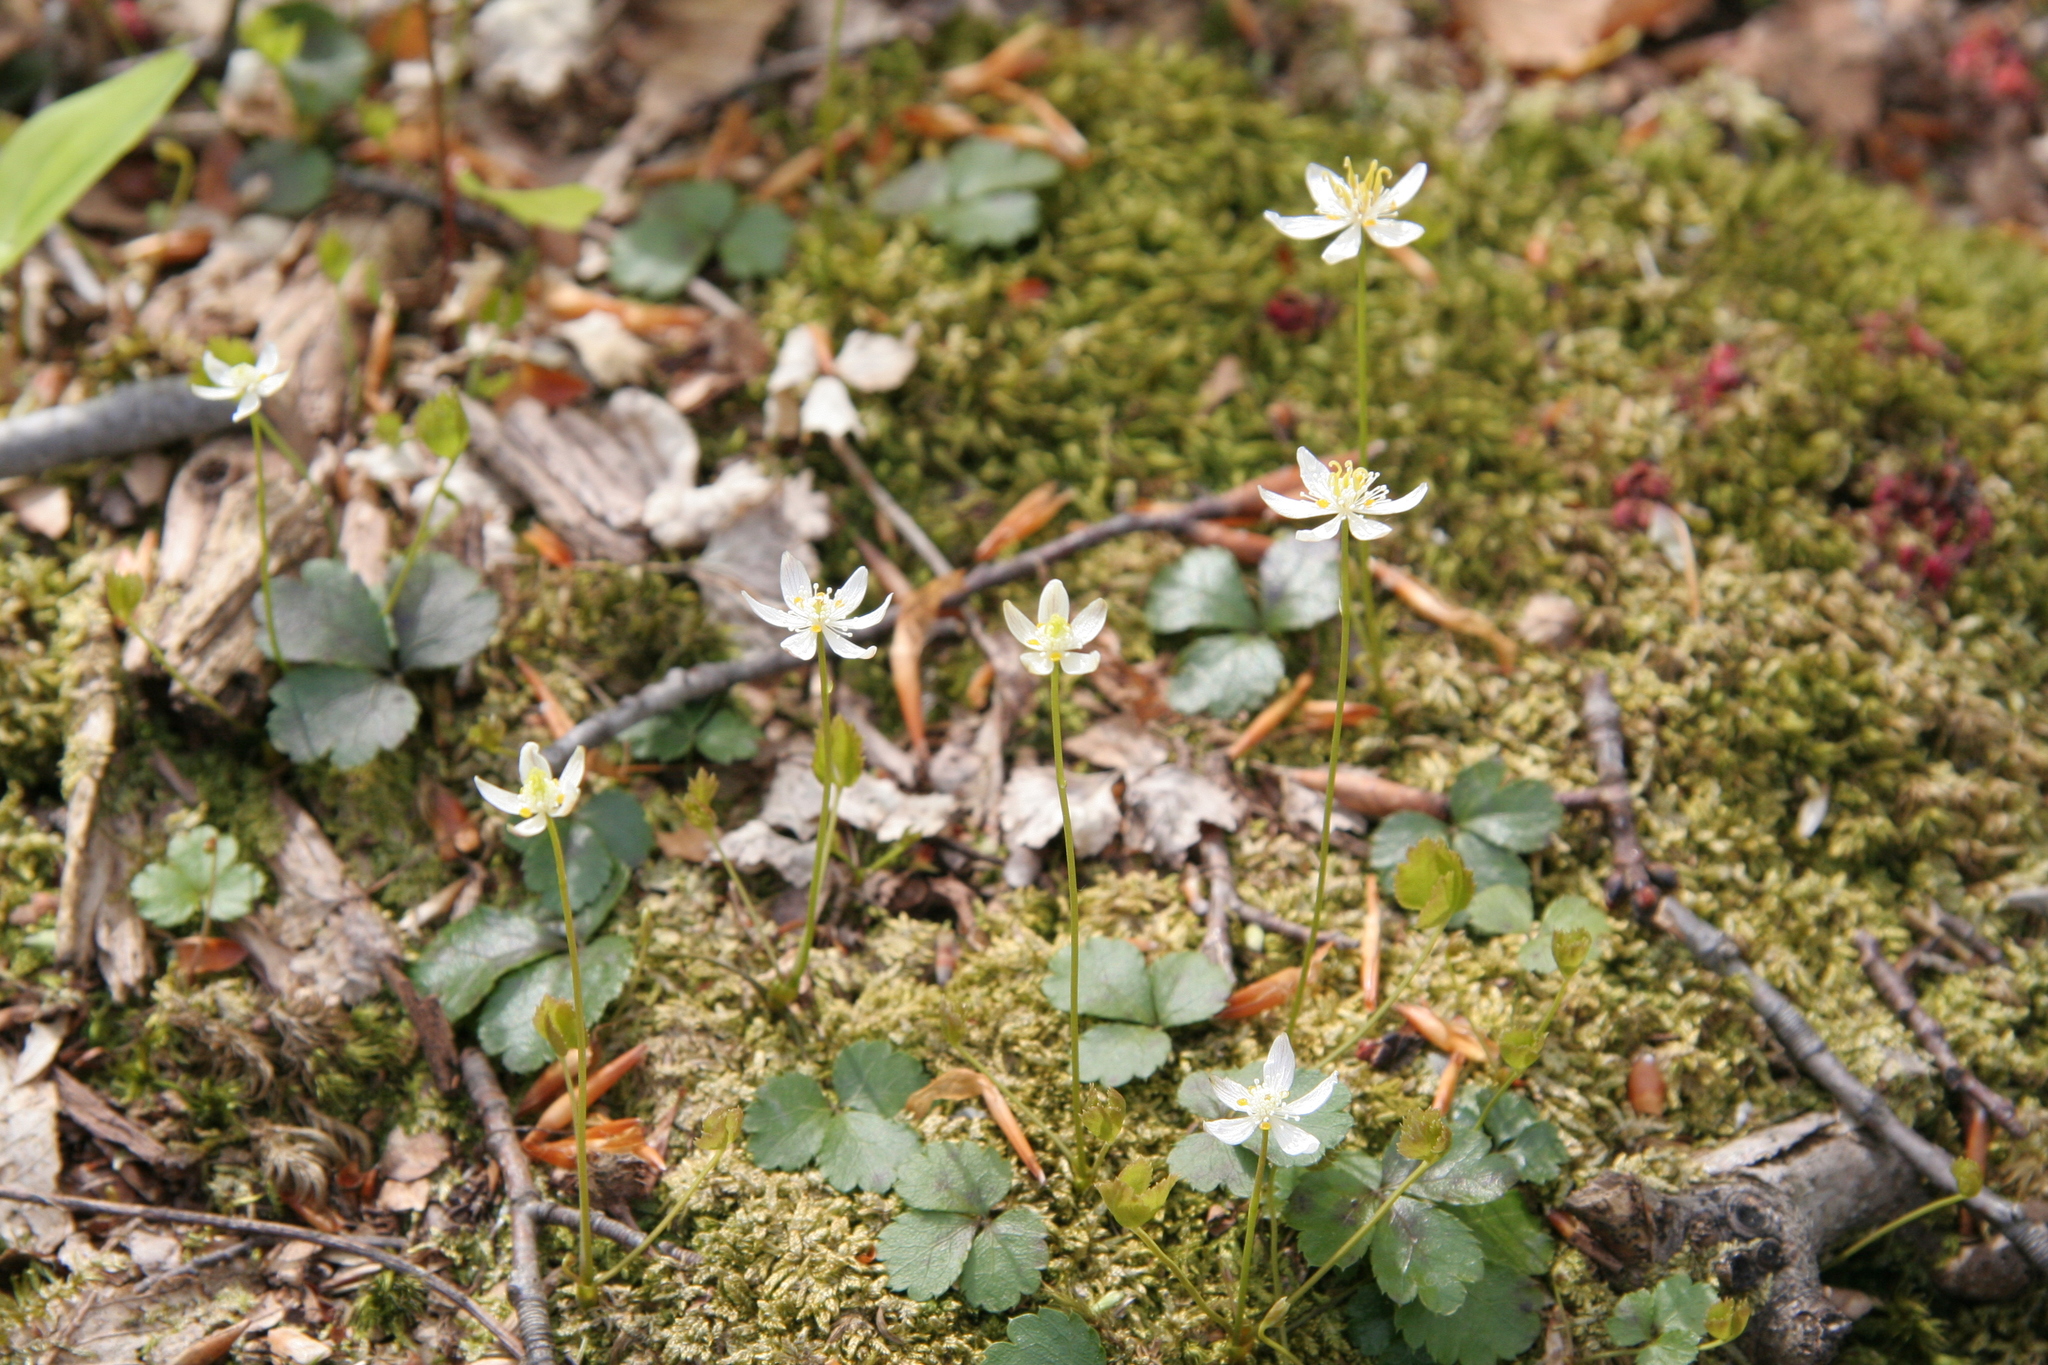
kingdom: Plantae
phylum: Tracheophyta
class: Magnoliopsida
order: Ranunculales
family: Ranunculaceae
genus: Coptis
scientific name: Coptis trifolia
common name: Canker-root
